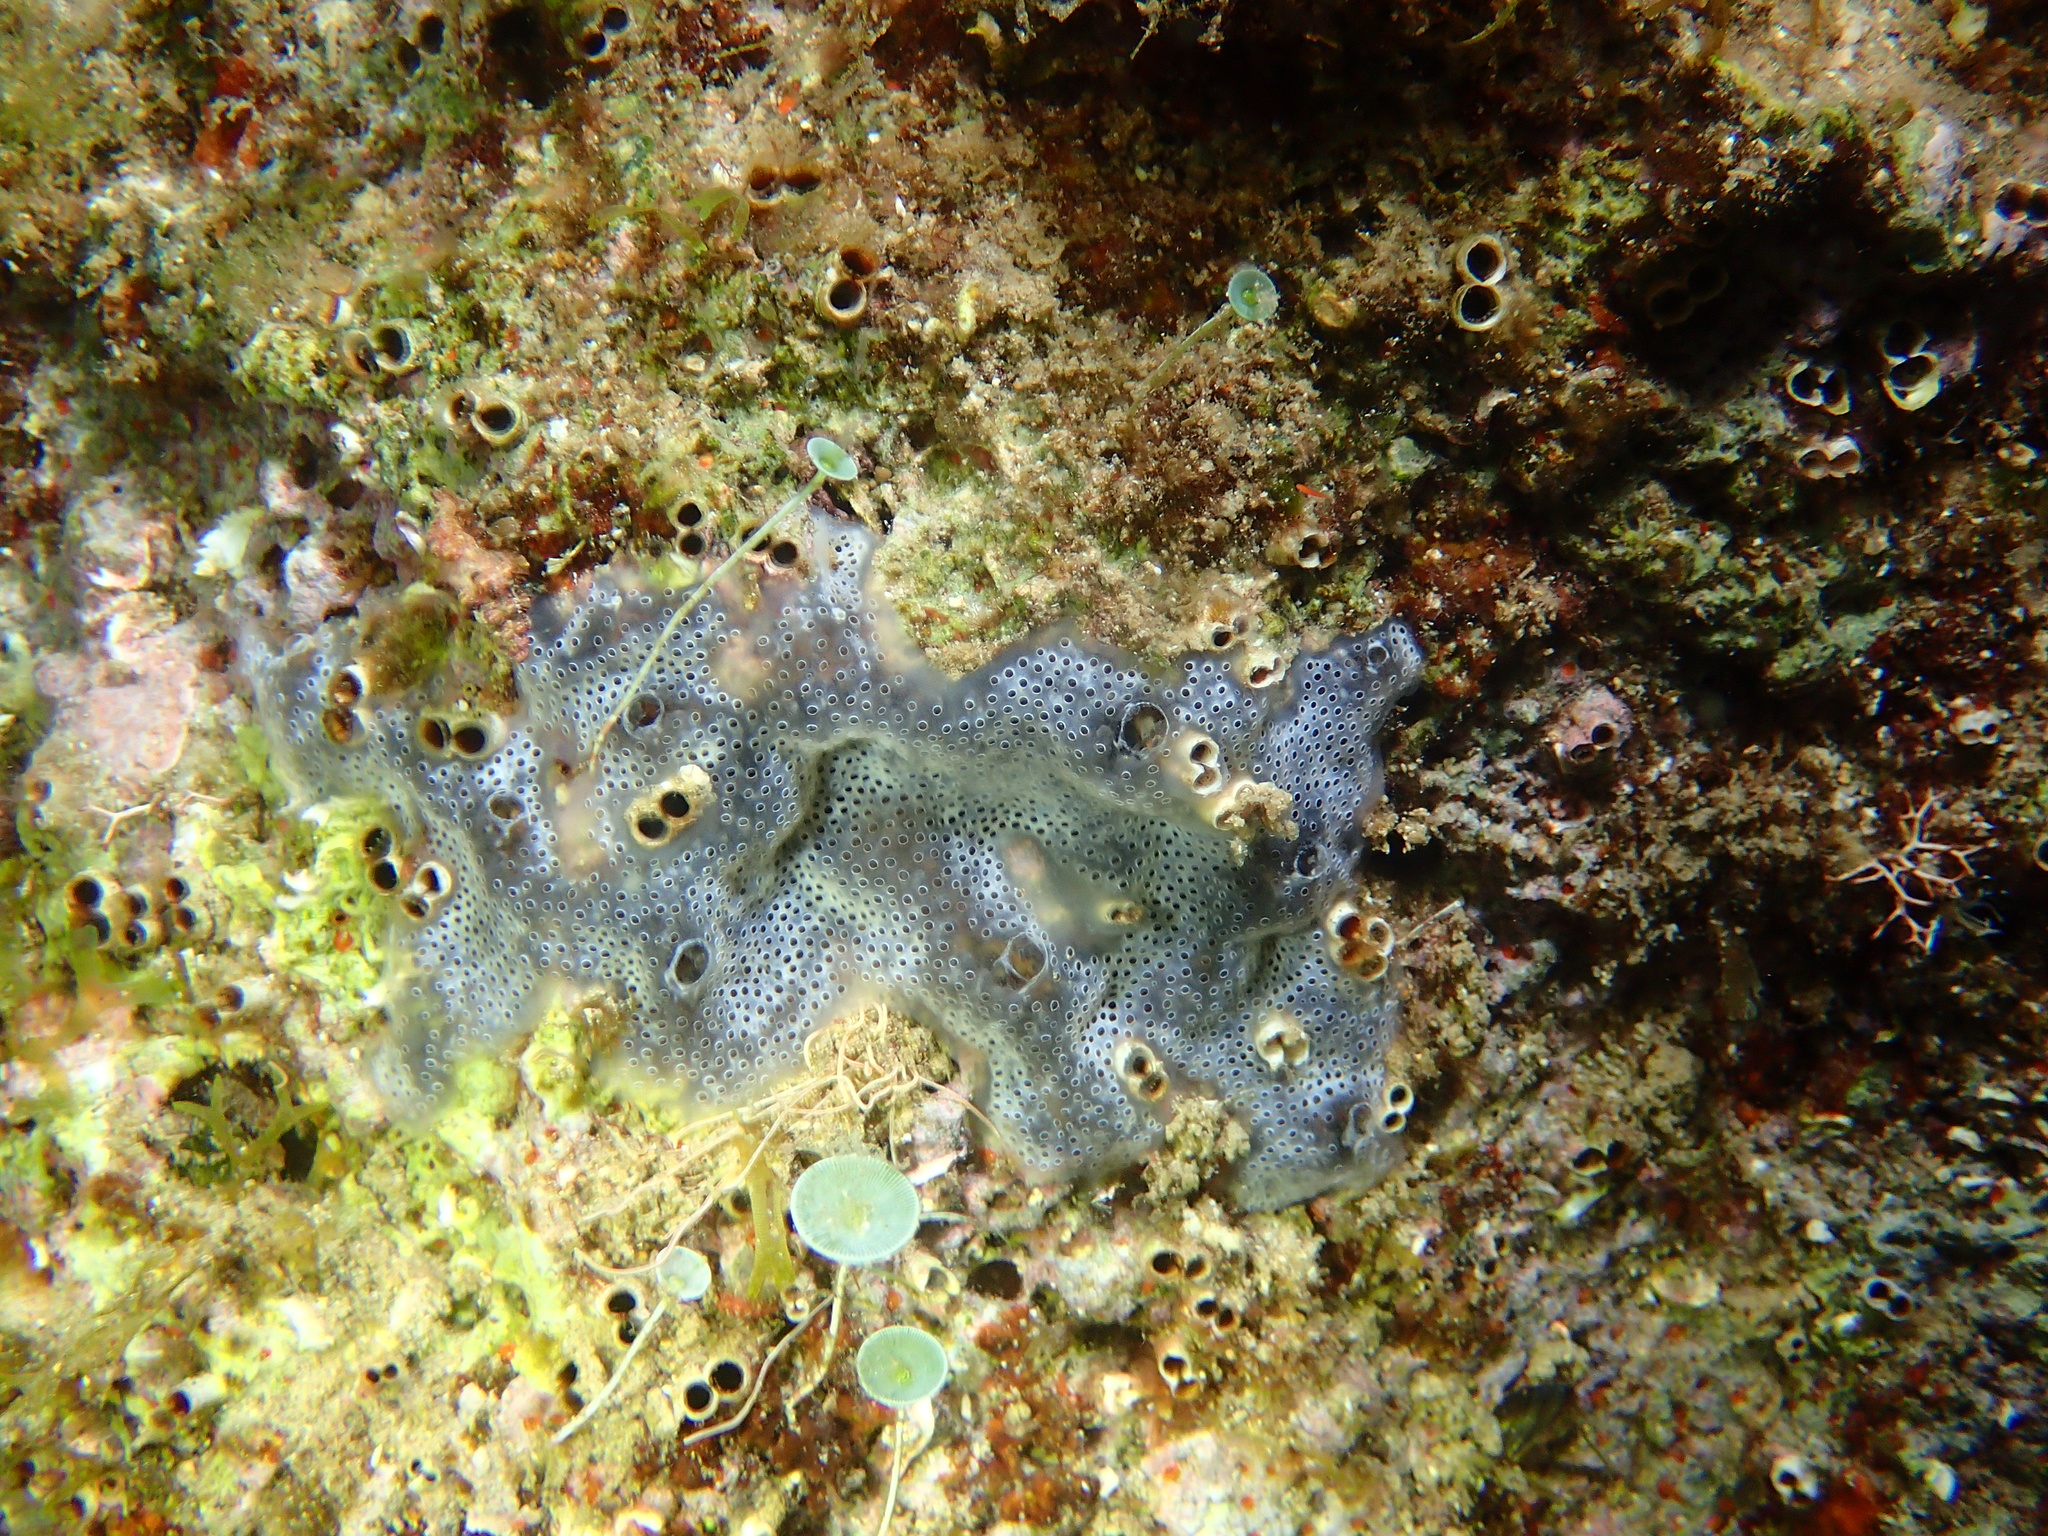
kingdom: Animalia
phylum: Chordata
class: Ascidiacea
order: Aplousobranchia
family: Didemnidae
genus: Diplosoma
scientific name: Diplosoma spongiforme
